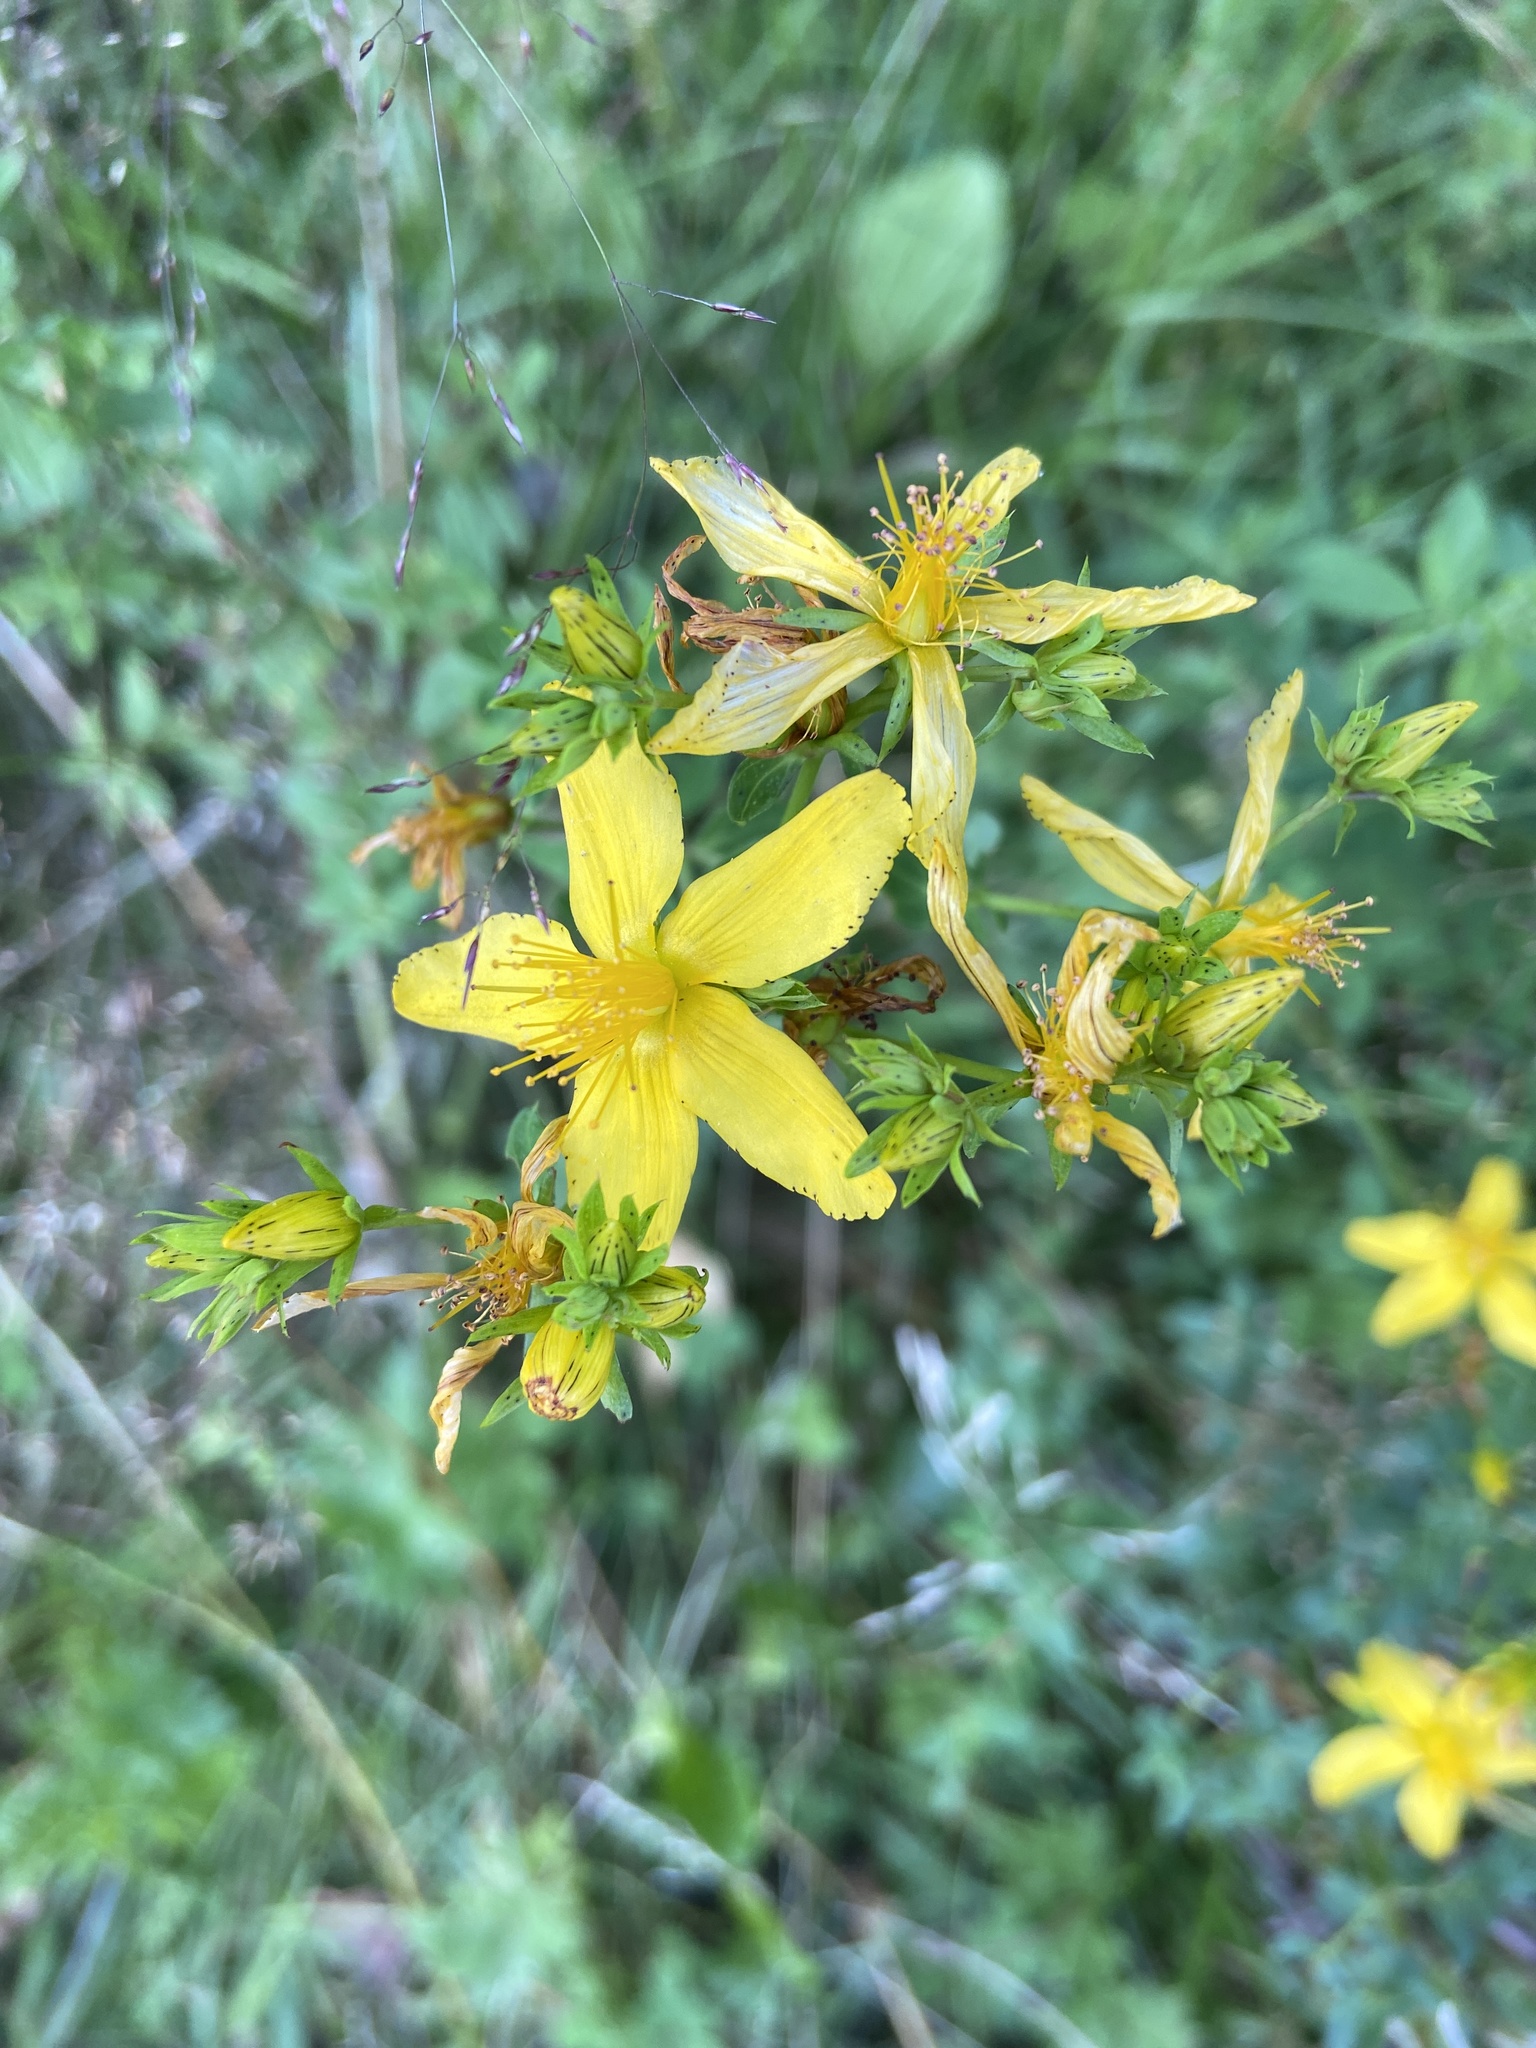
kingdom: Animalia
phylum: Arthropoda
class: Insecta
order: Coleoptera
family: Chrysomelidae
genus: Chrysolina
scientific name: Chrysolina varians
